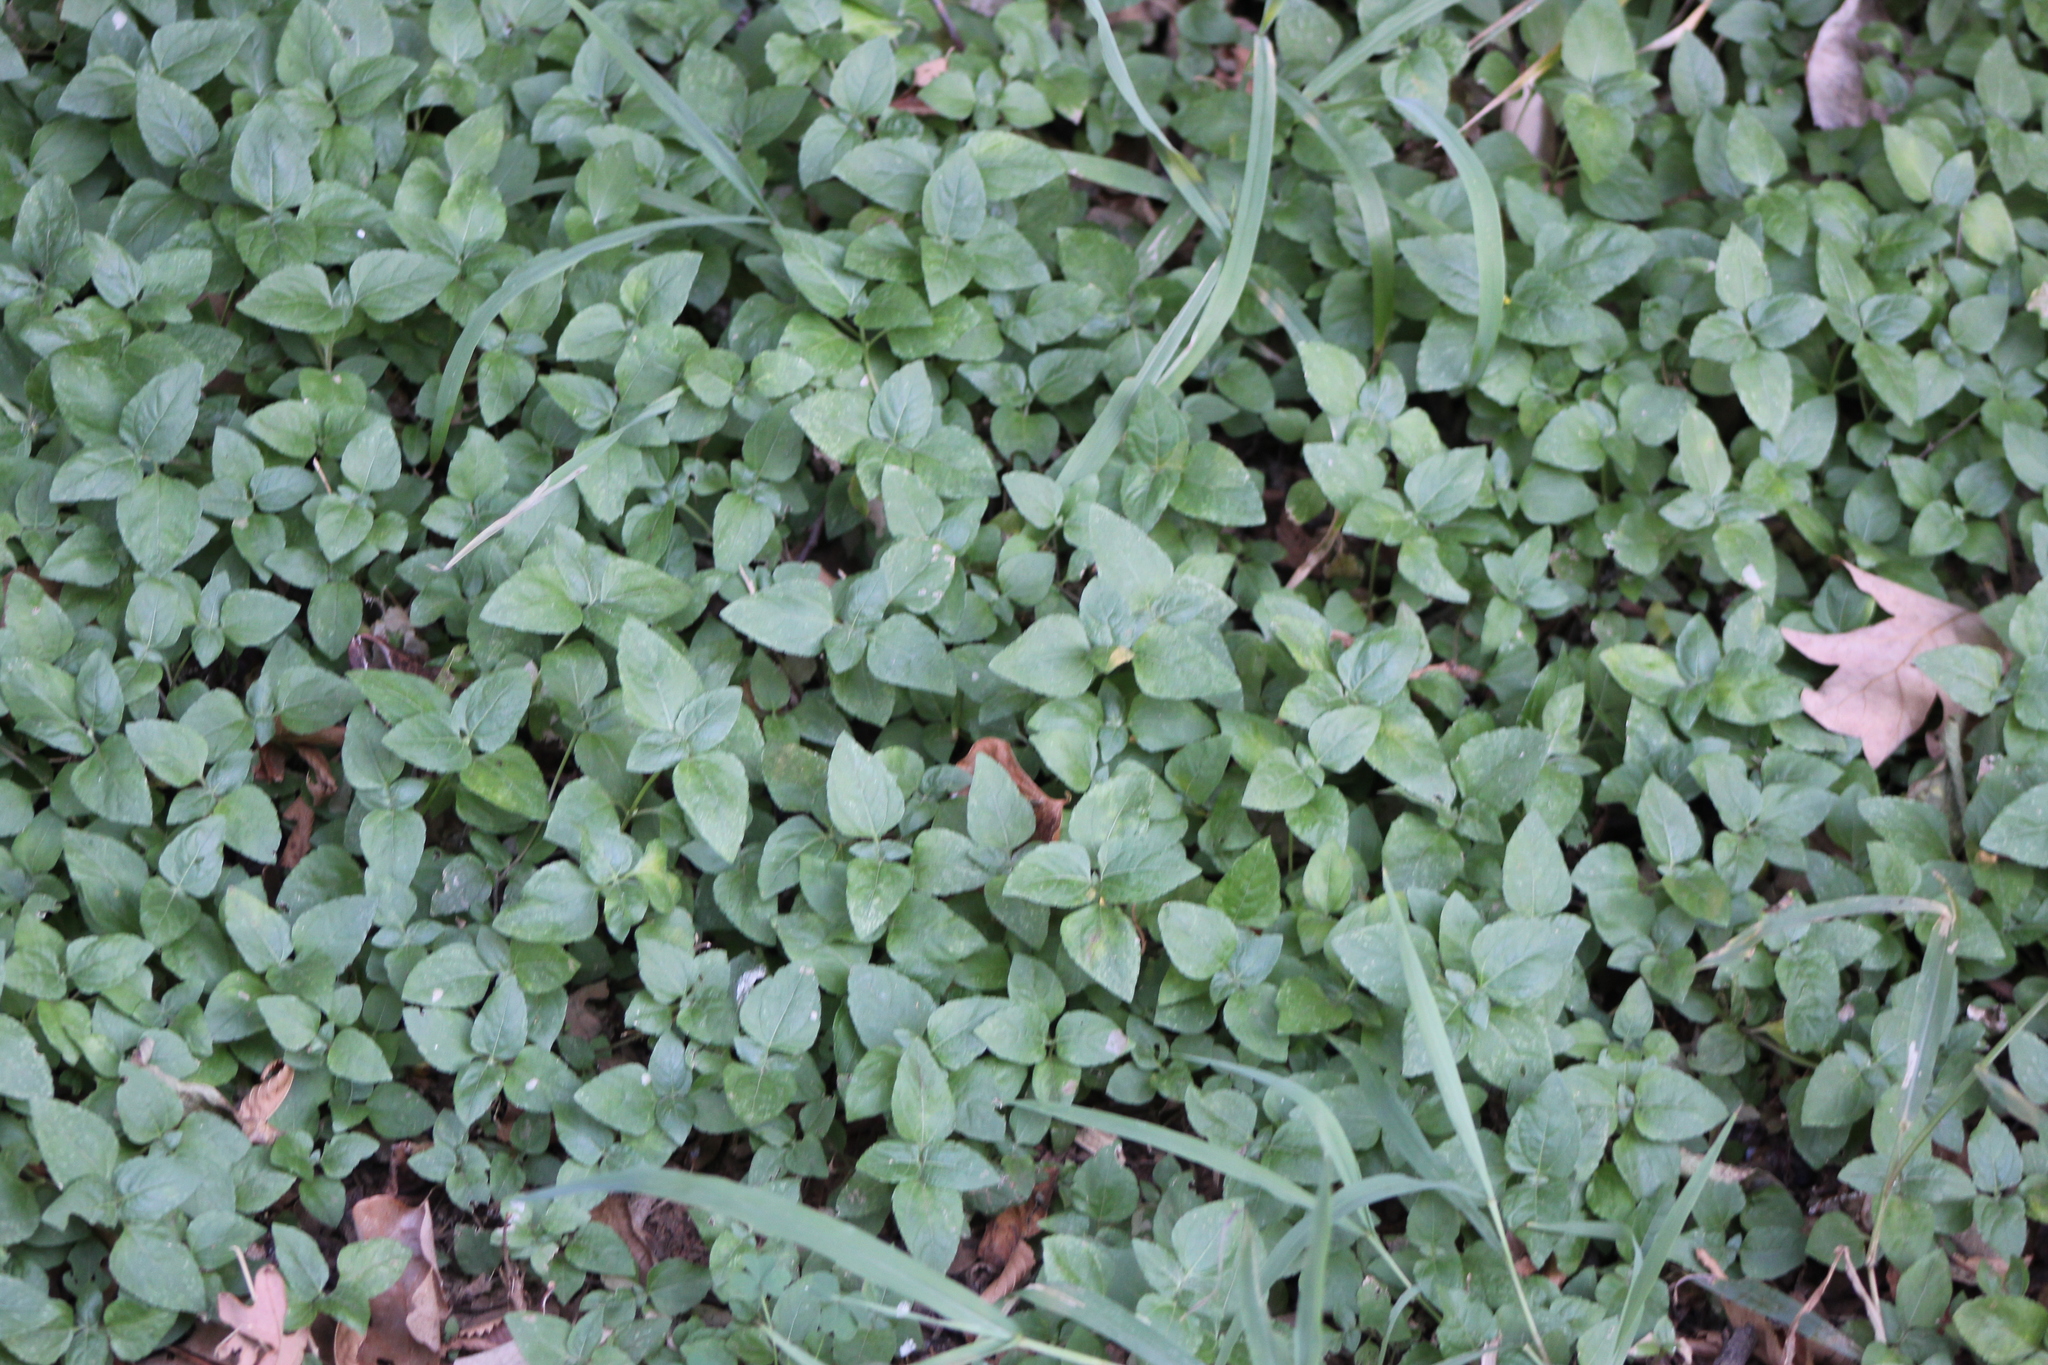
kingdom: Plantae
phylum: Tracheophyta
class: Magnoliopsida
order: Asterales
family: Asteraceae
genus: Calyptocarpus
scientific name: Calyptocarpus vialis
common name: Straggler daisy
